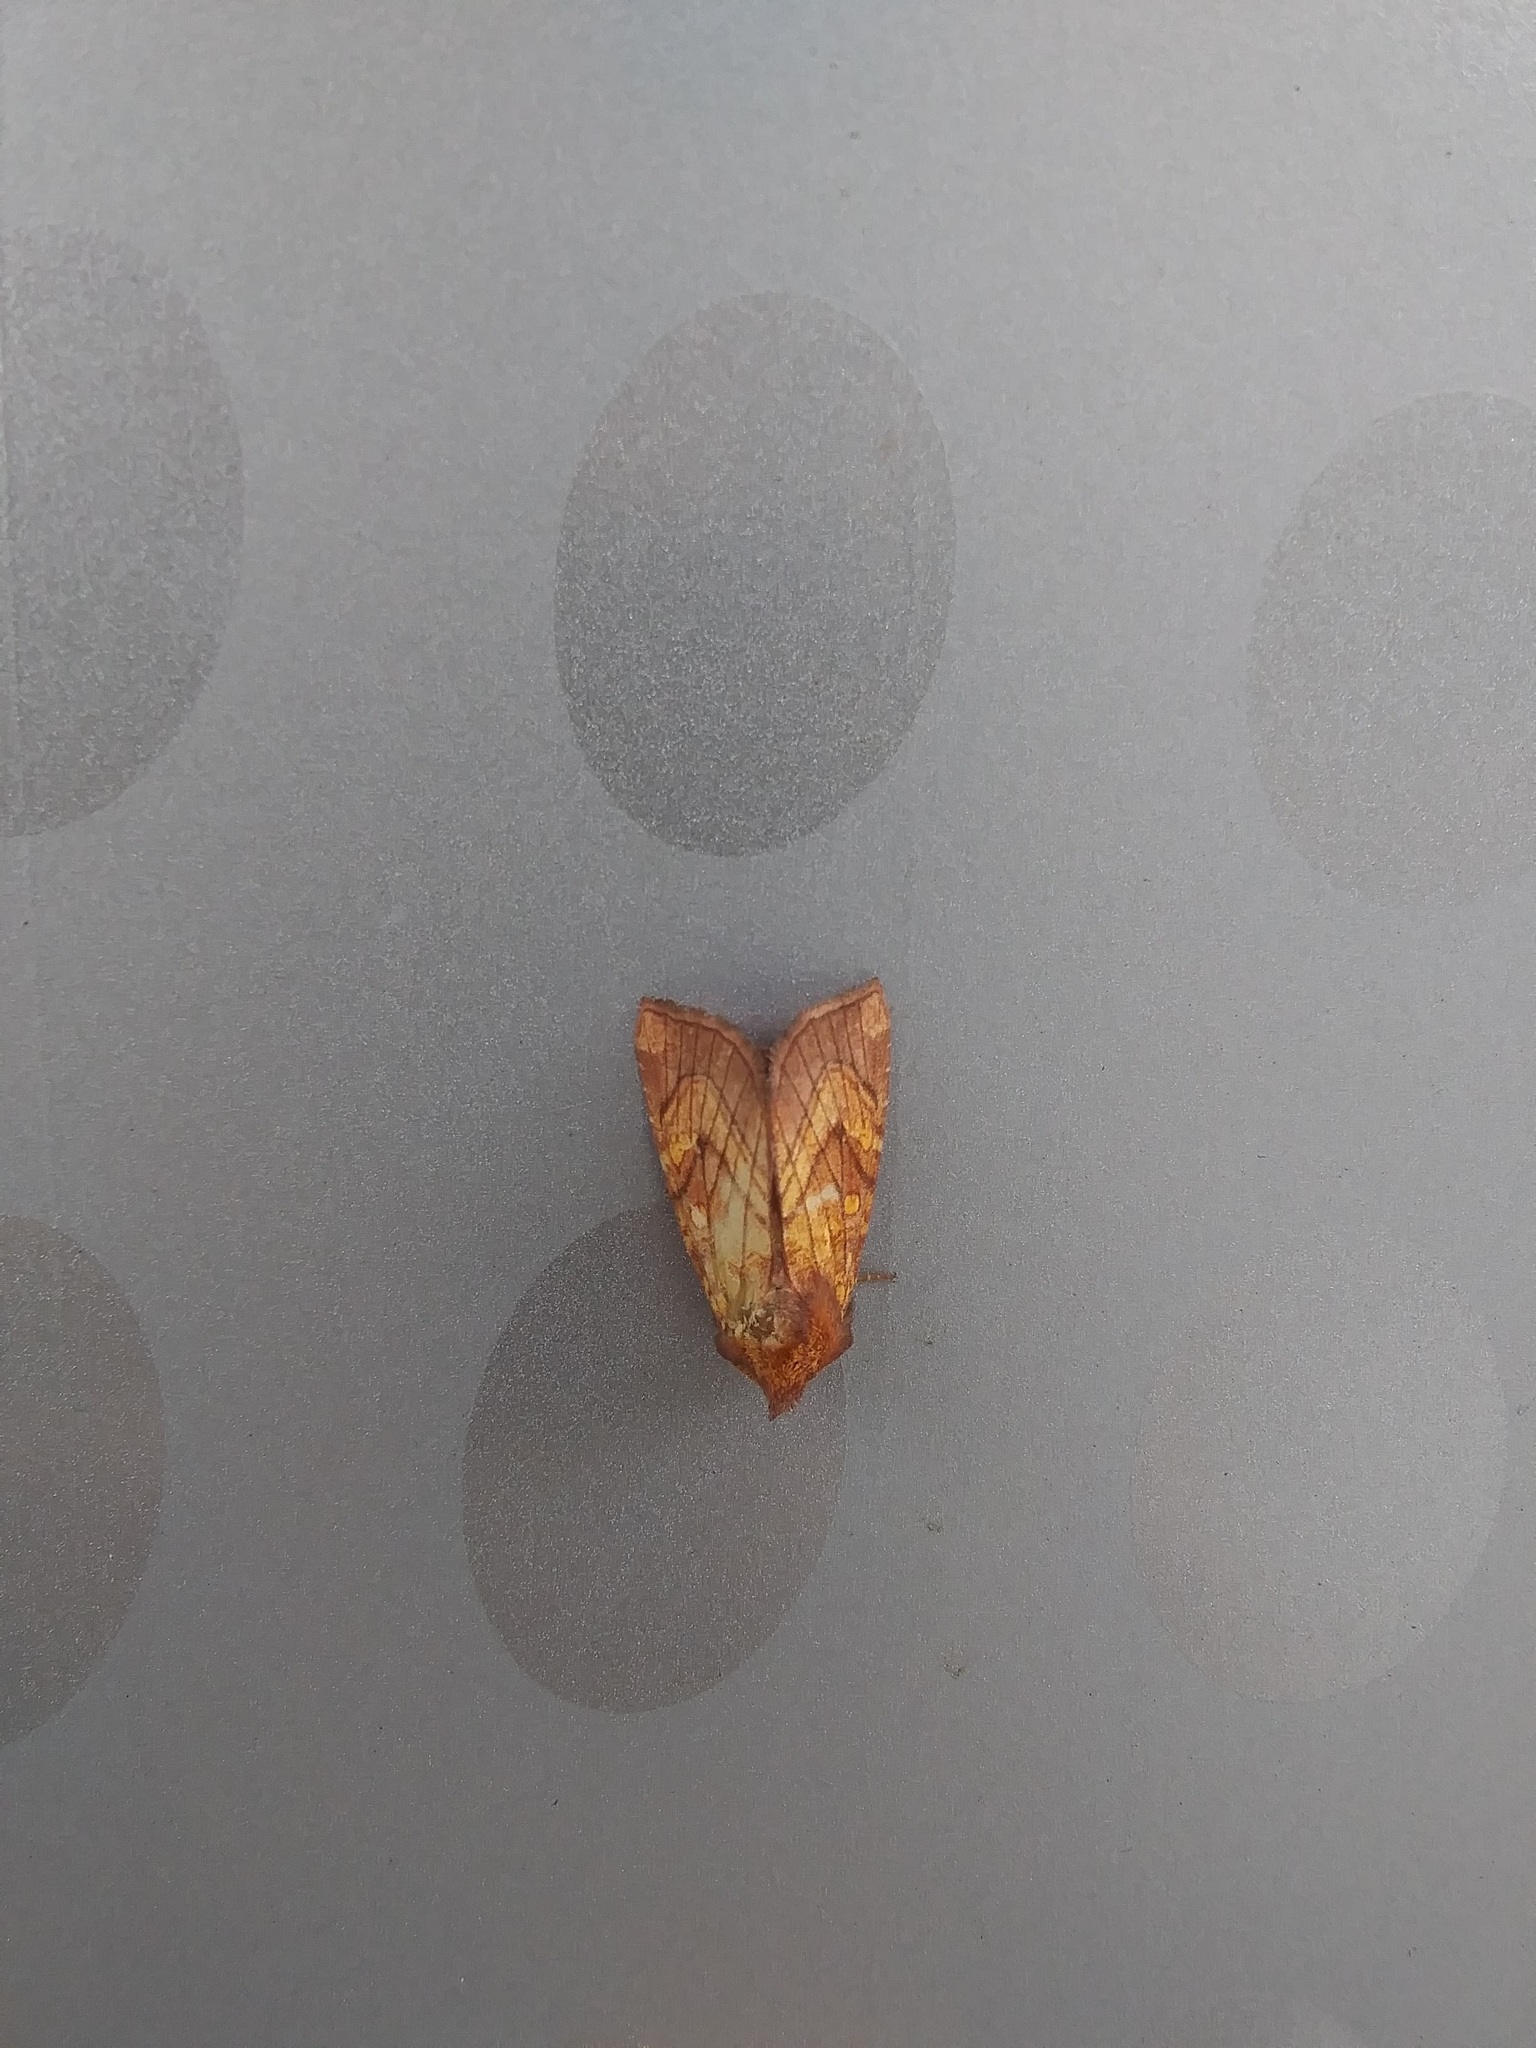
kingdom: Animalia
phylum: Arthropoda
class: Insecta
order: Lepidoptera
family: Noctuidae
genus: Papaipema
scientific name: Papaipema inquaesita
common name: Sensitive fern borer moth
